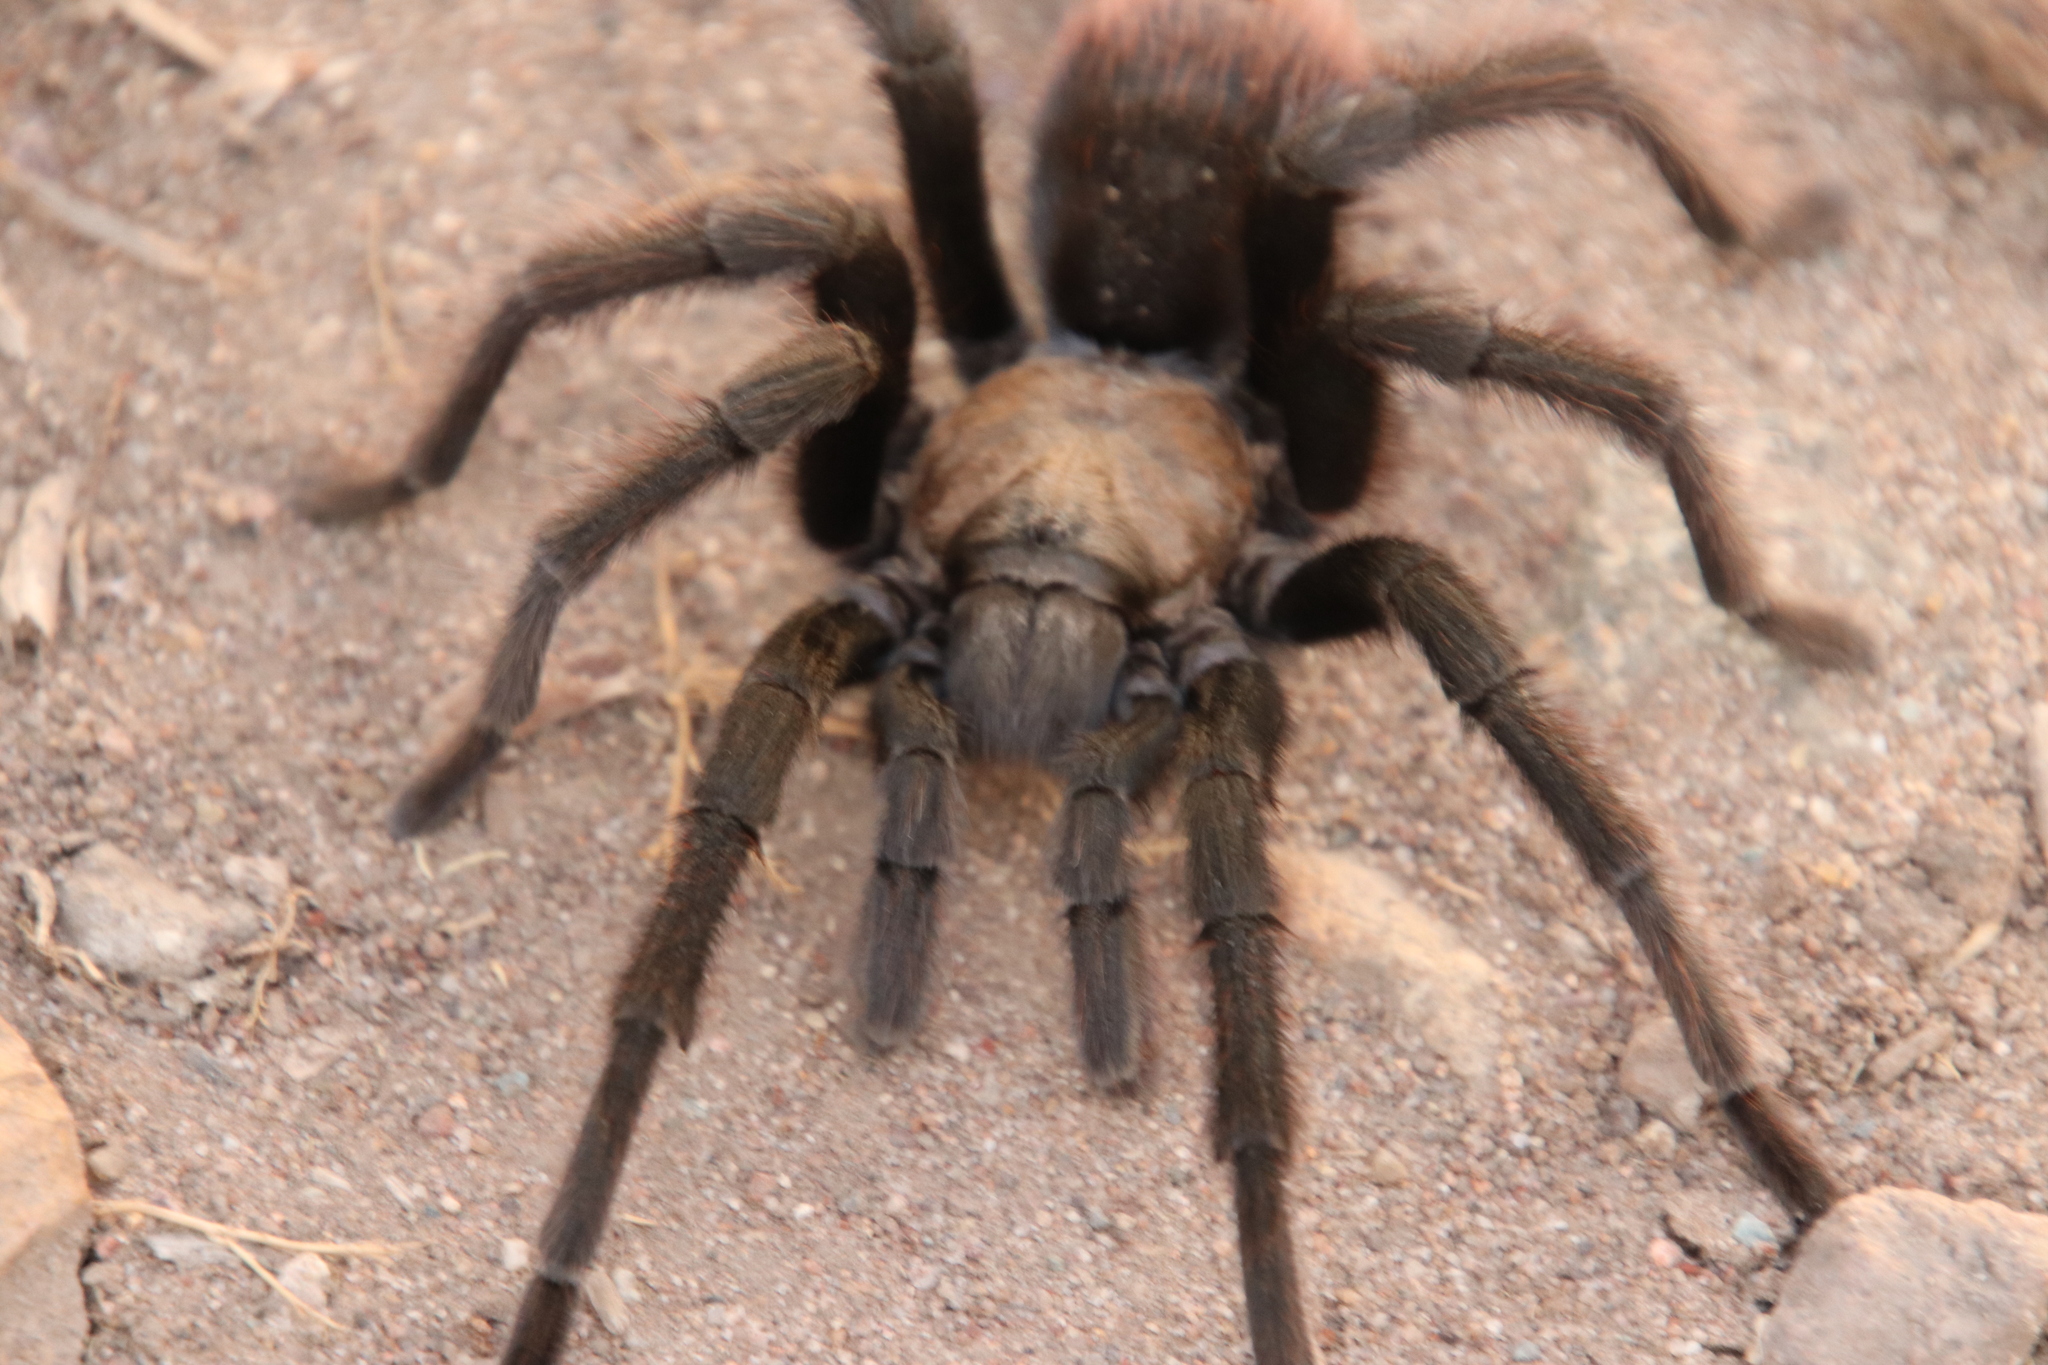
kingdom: Animalia
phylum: Arthropoda
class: Arachnida
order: Araneae
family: Theraphosidae
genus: Aphonopelma
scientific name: Aphonopelma eutylenum
